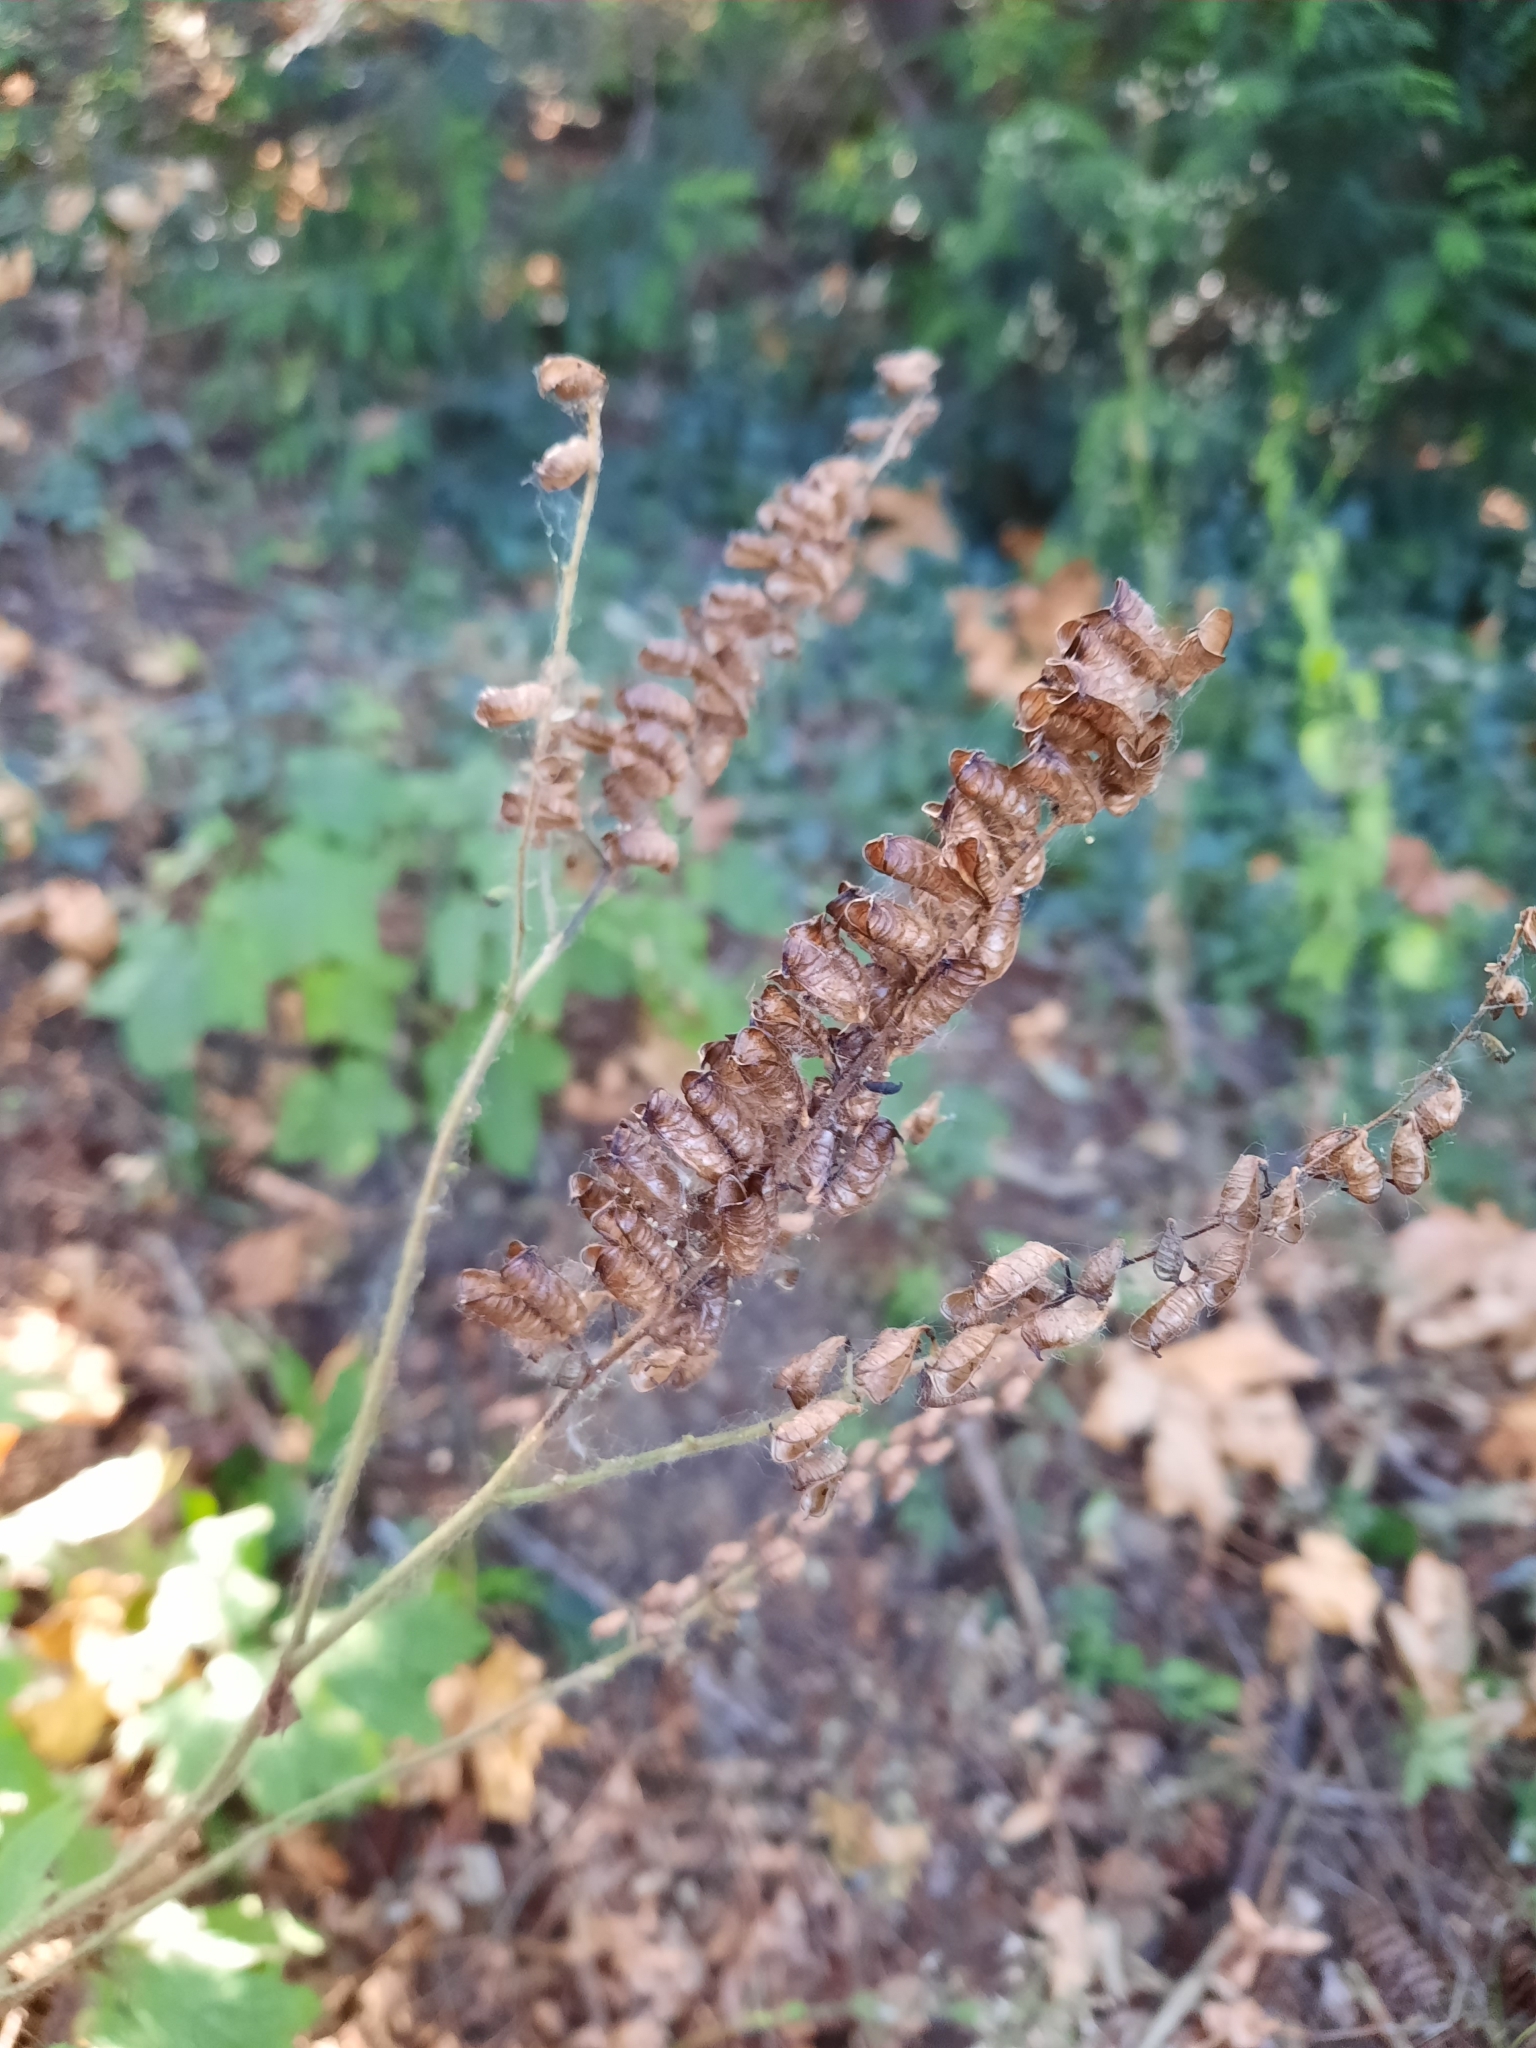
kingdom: Plantae
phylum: Tracheophyta
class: Magnoliopsida
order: Ranunculales
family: Ranunculaceae
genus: Actaea
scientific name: Actaea elata
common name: Tall bugbane
